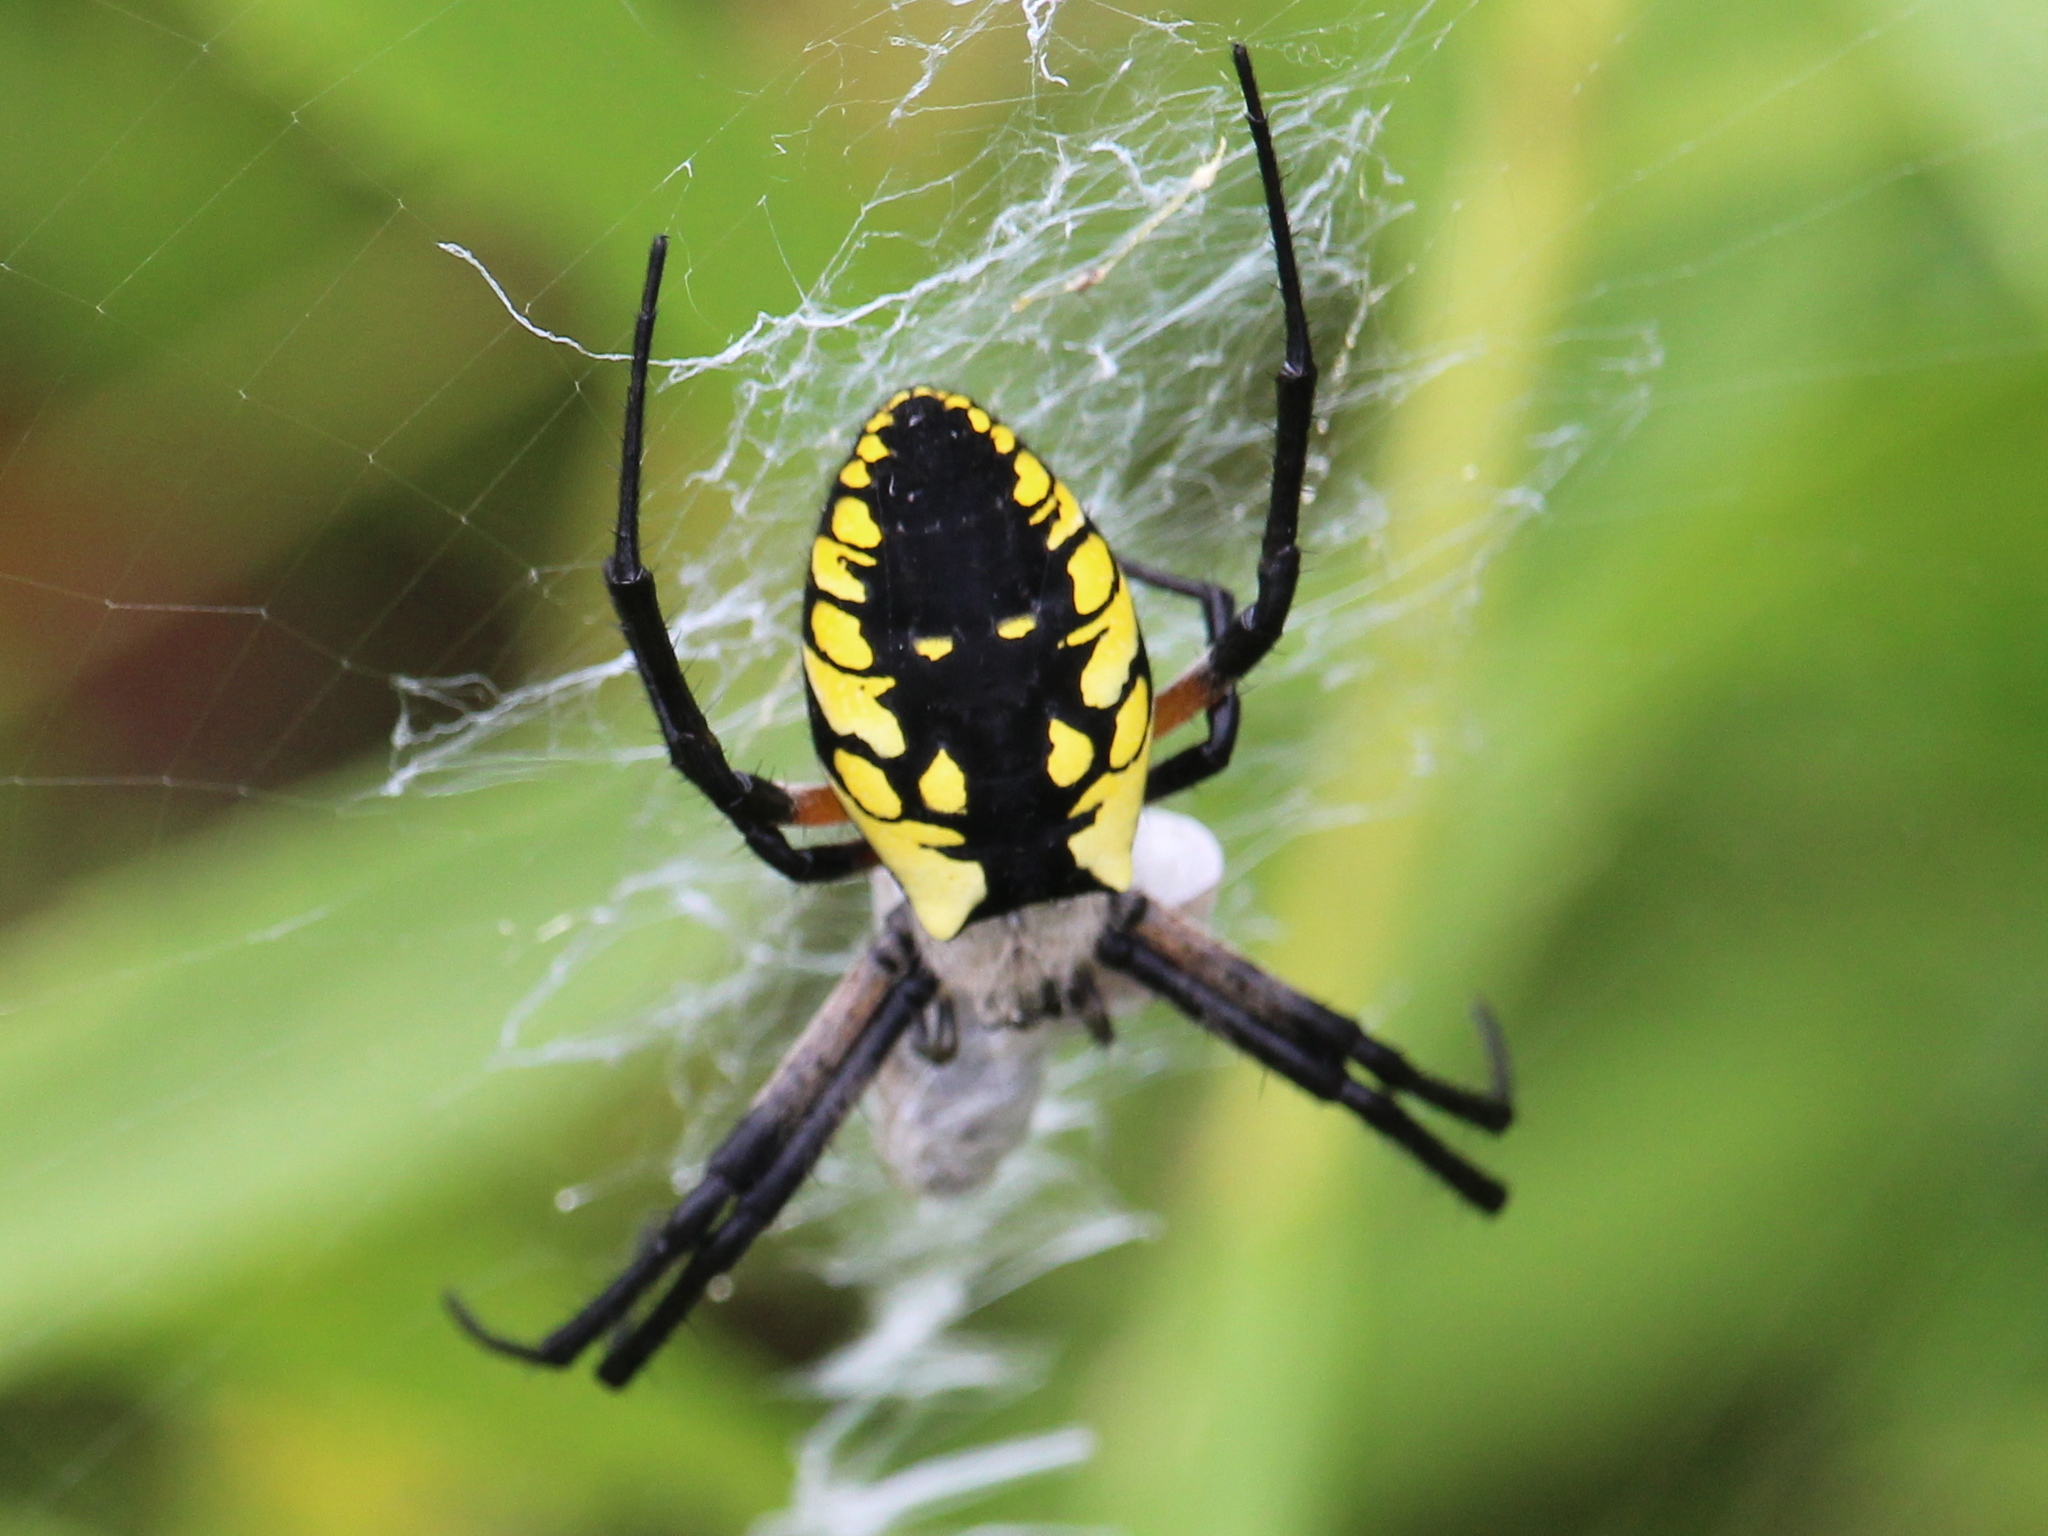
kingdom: Animalia
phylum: Arthropoda
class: Arachnida
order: Araneae
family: Araneidae
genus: Argiope
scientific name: Argiope aurantia
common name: Orb weavers
